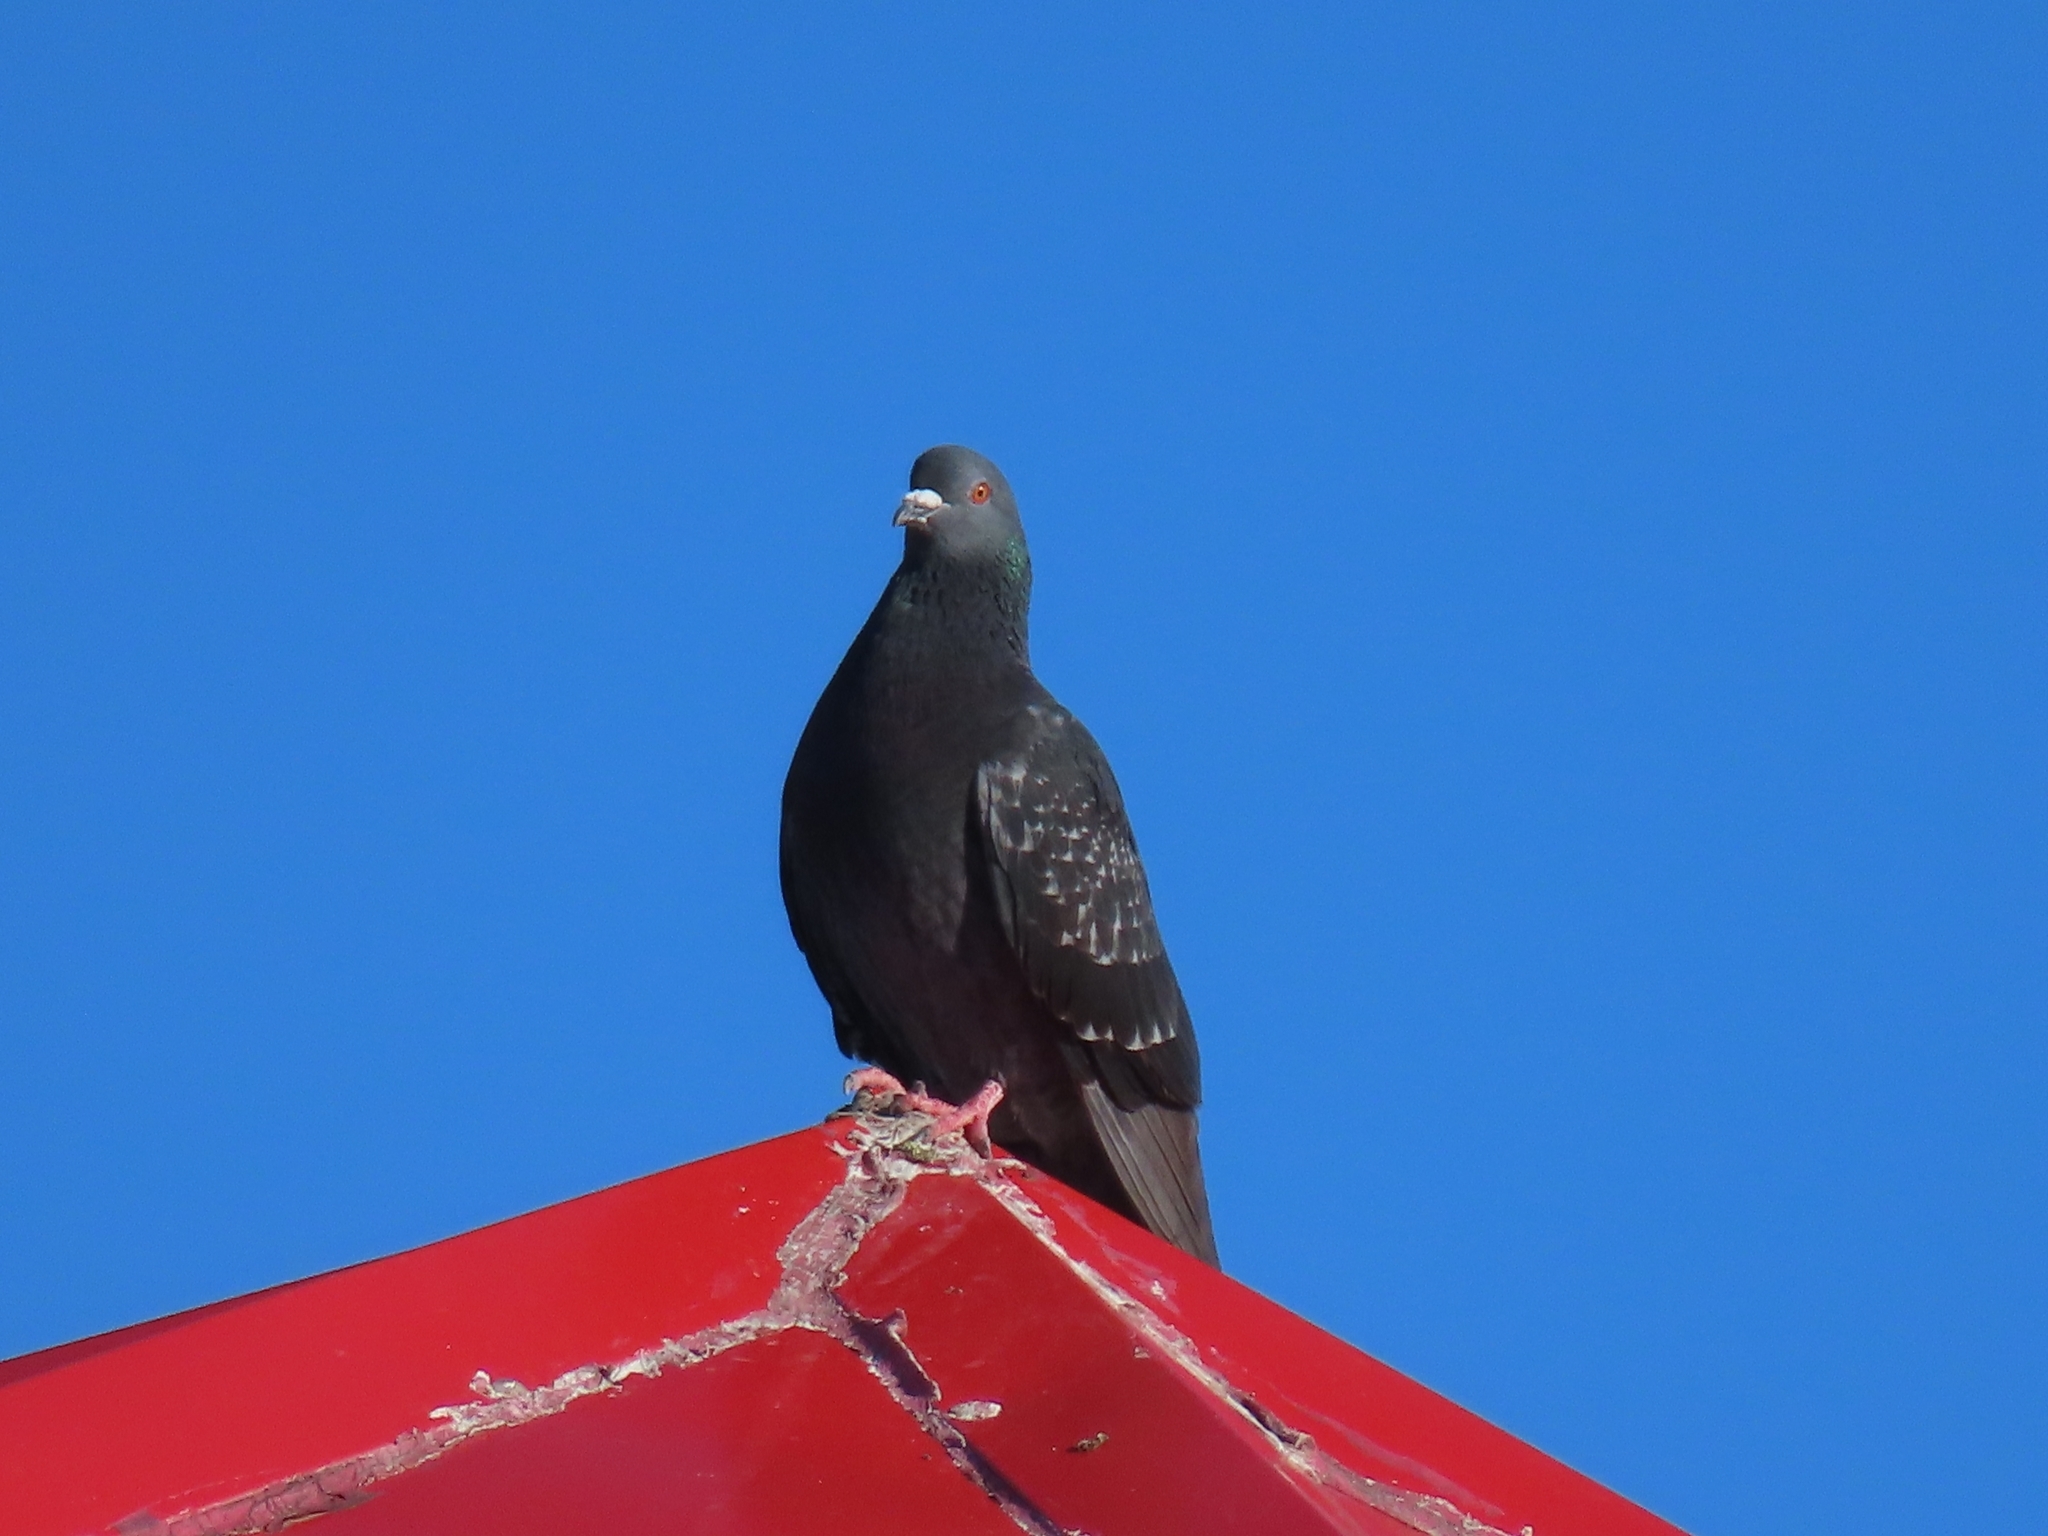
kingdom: Animalia
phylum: Chordata
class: Aves
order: Columbiformes
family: Columbidae
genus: Columba
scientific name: Columba livia
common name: Rock pigeon
